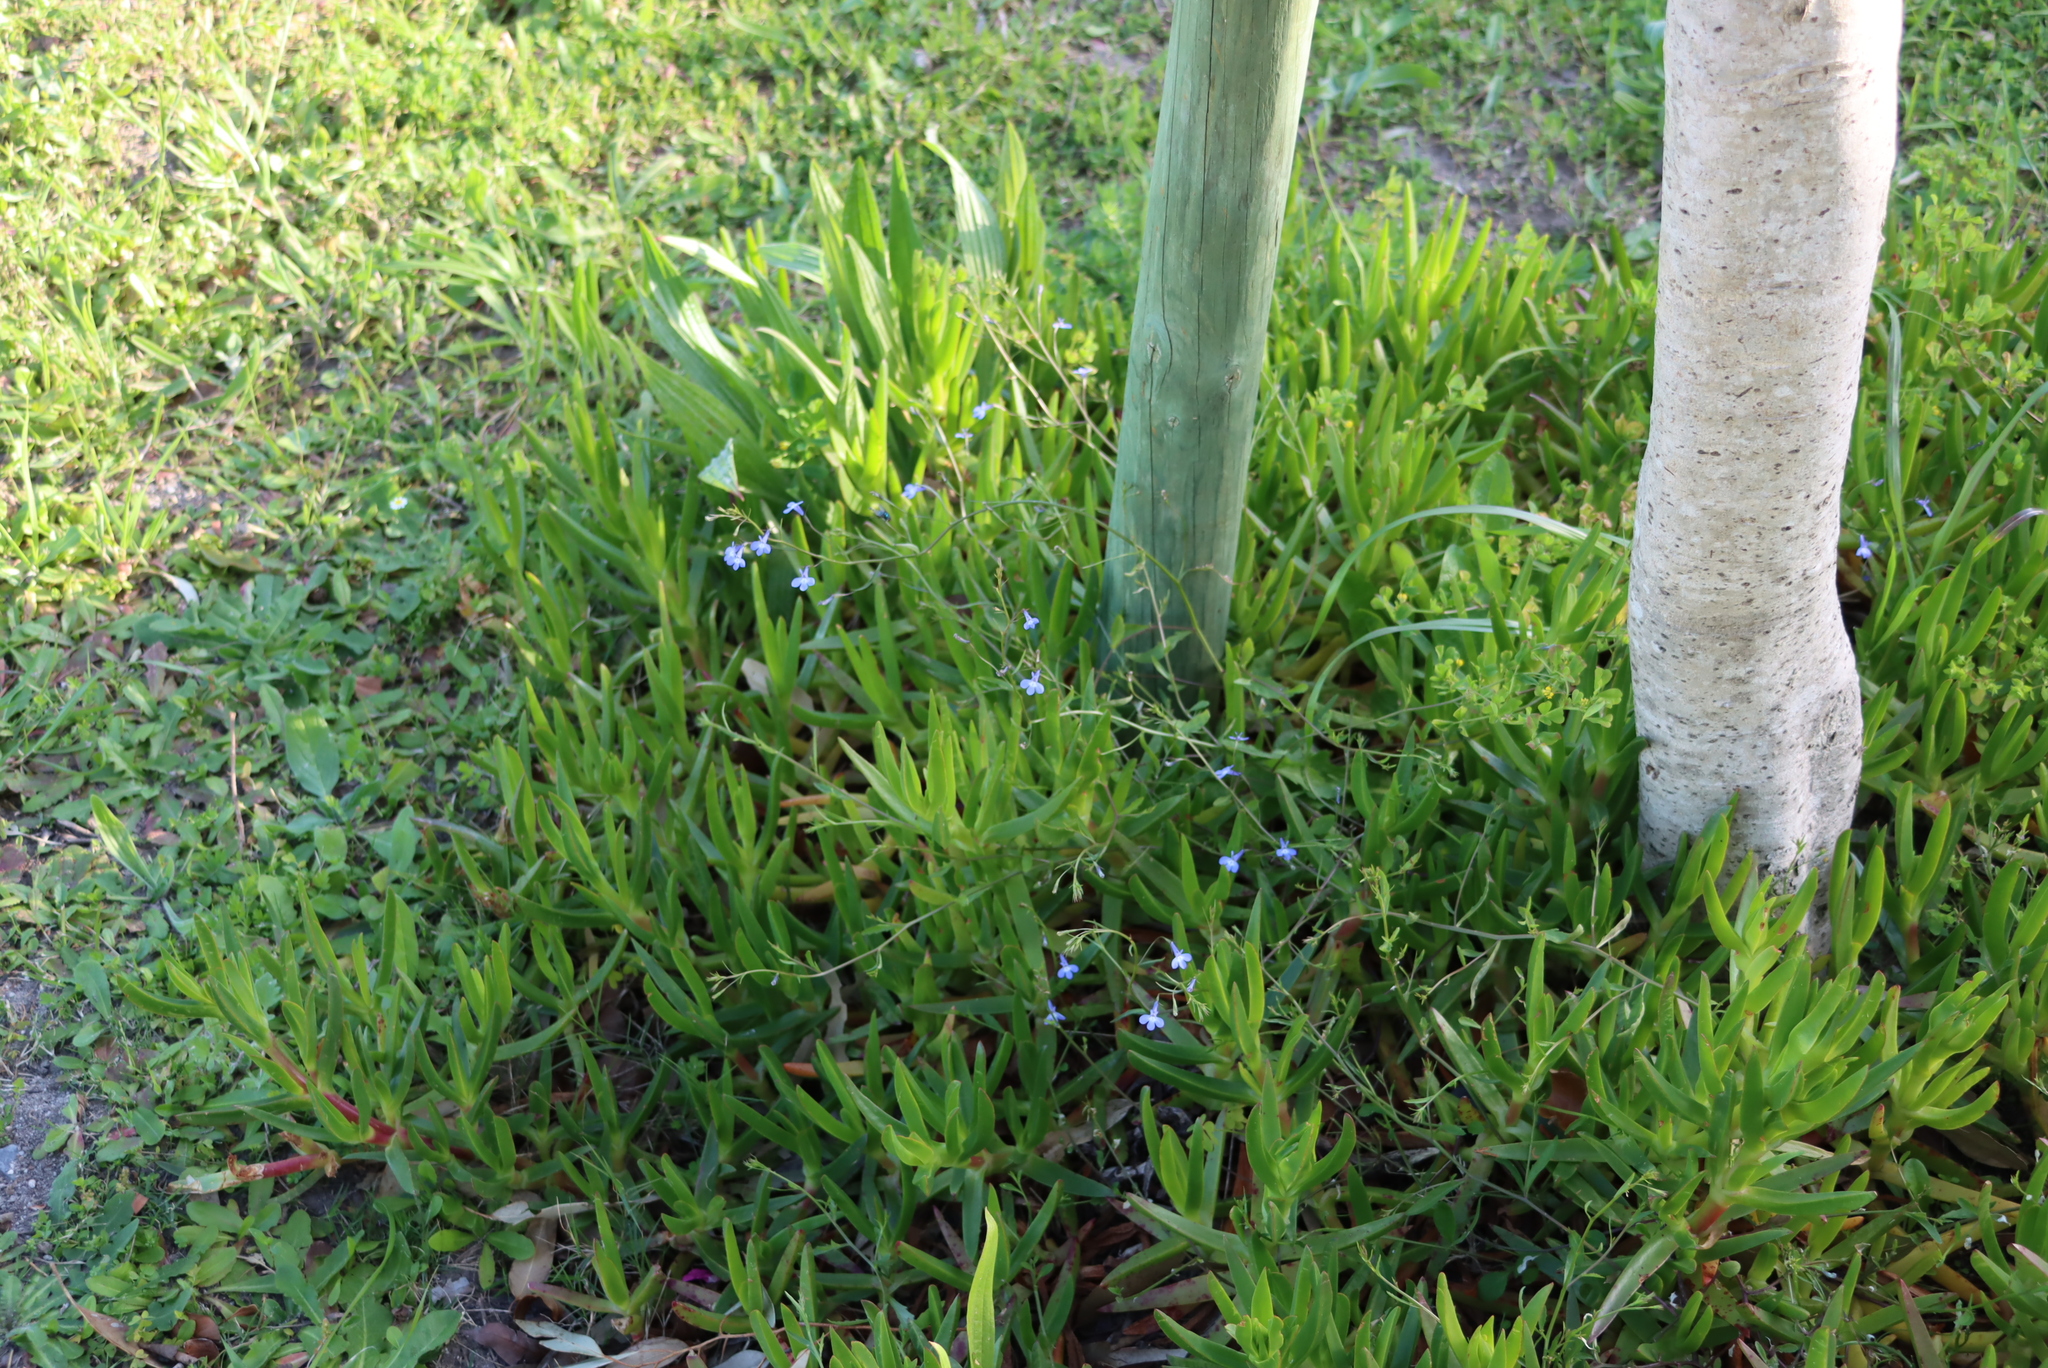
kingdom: Plantae
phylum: Tracheophyta
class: Magnoliopsida
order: Asterales
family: Campanulaceae
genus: Lobelia
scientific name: Lobelia erinus
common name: Edging lobelia
